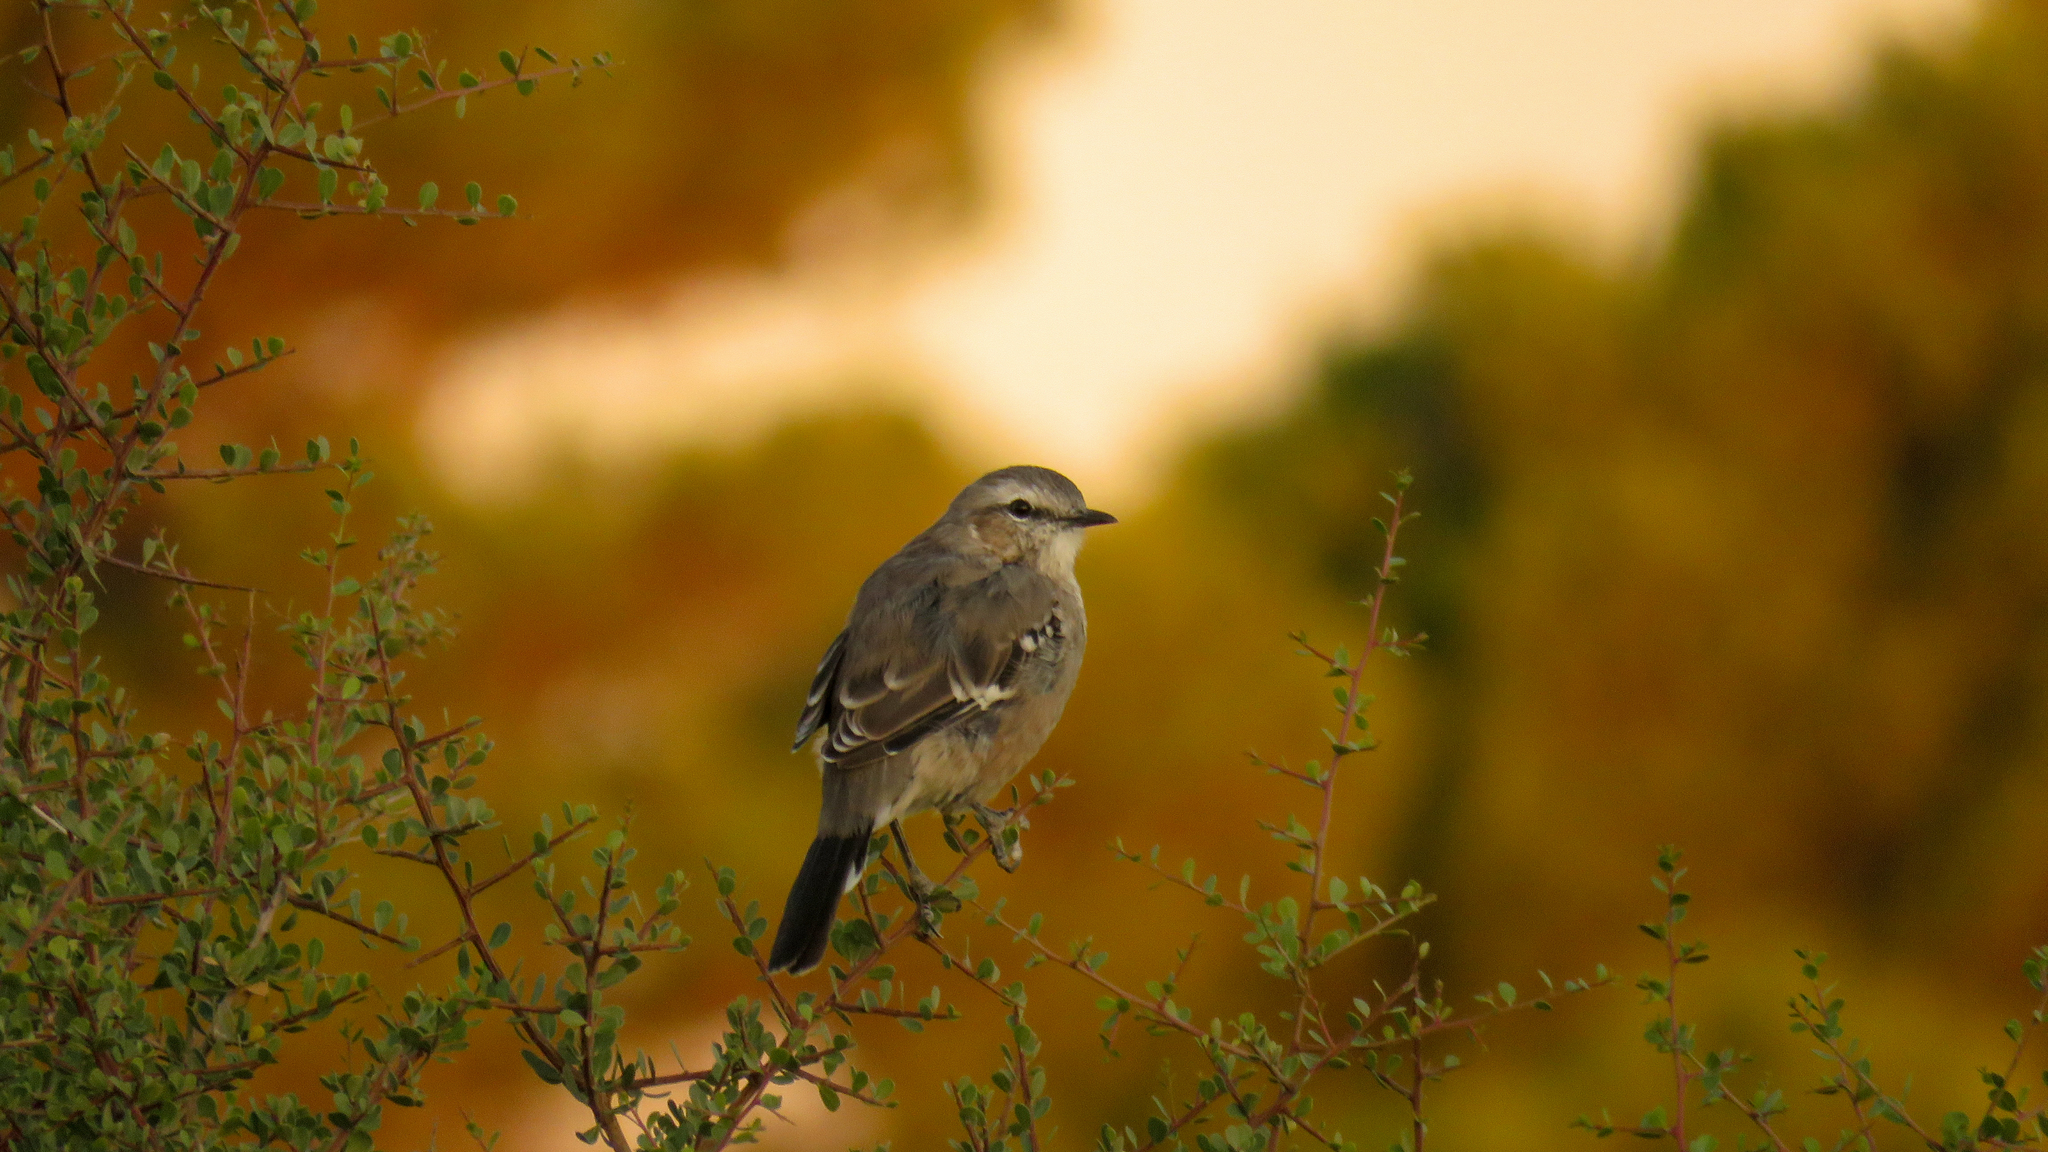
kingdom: Animalia
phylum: Chordata
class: Aves
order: Passeriformes
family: Mimidae
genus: Mimus
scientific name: Mimus saturninus
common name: Chalk-browed mockingbird
